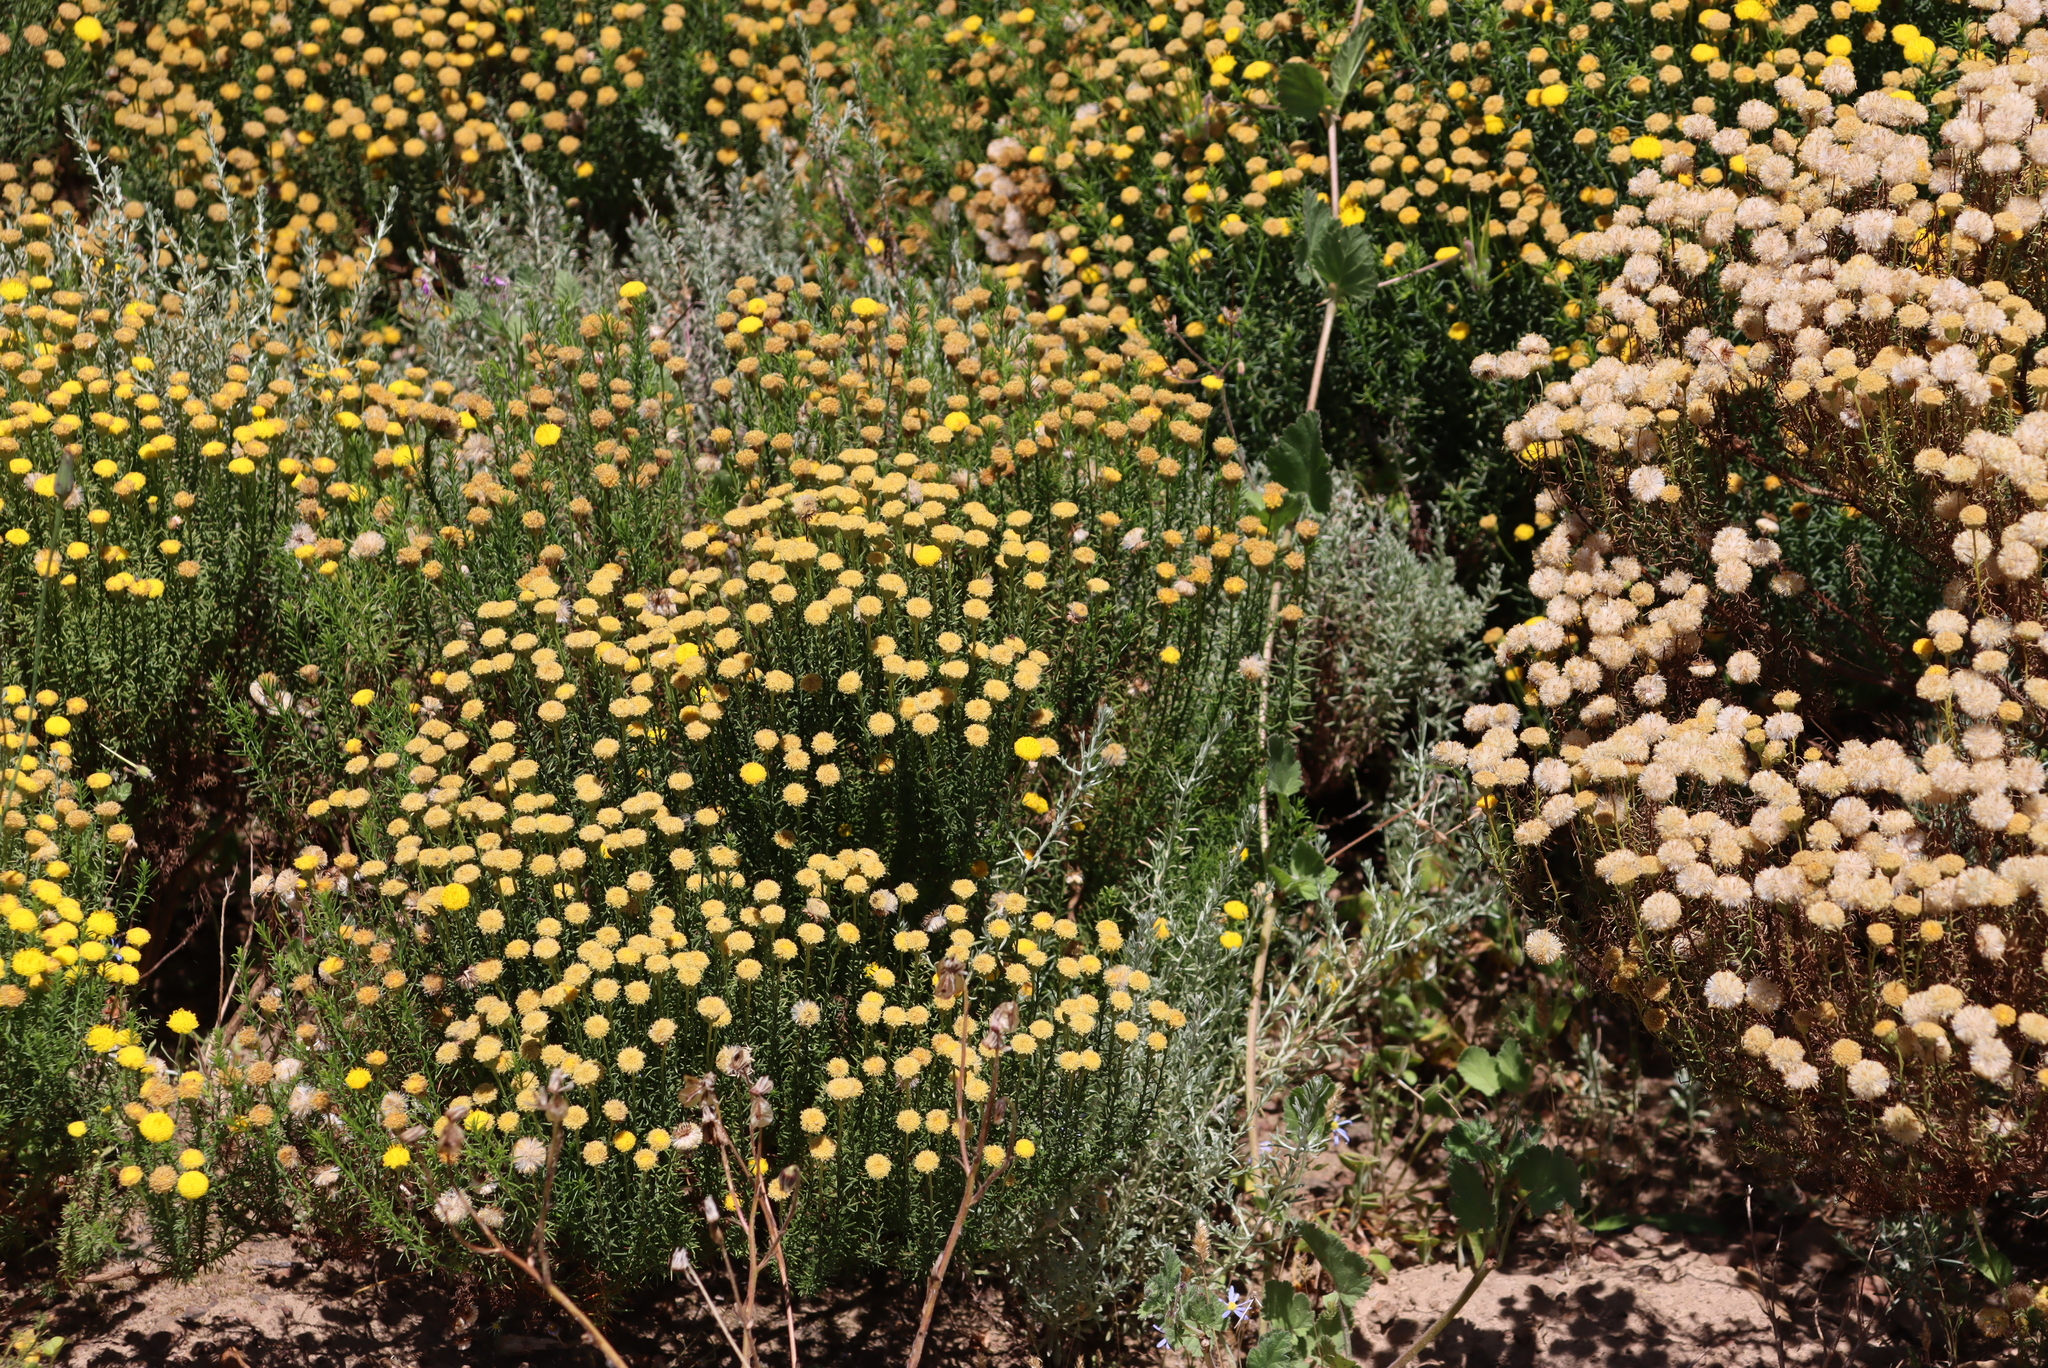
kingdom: Plantae
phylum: Tracheophyta
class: Magnoliopsida
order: Asterales
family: Asteraceae
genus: Chrysocoma
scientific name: Chrysocoma ciliata
